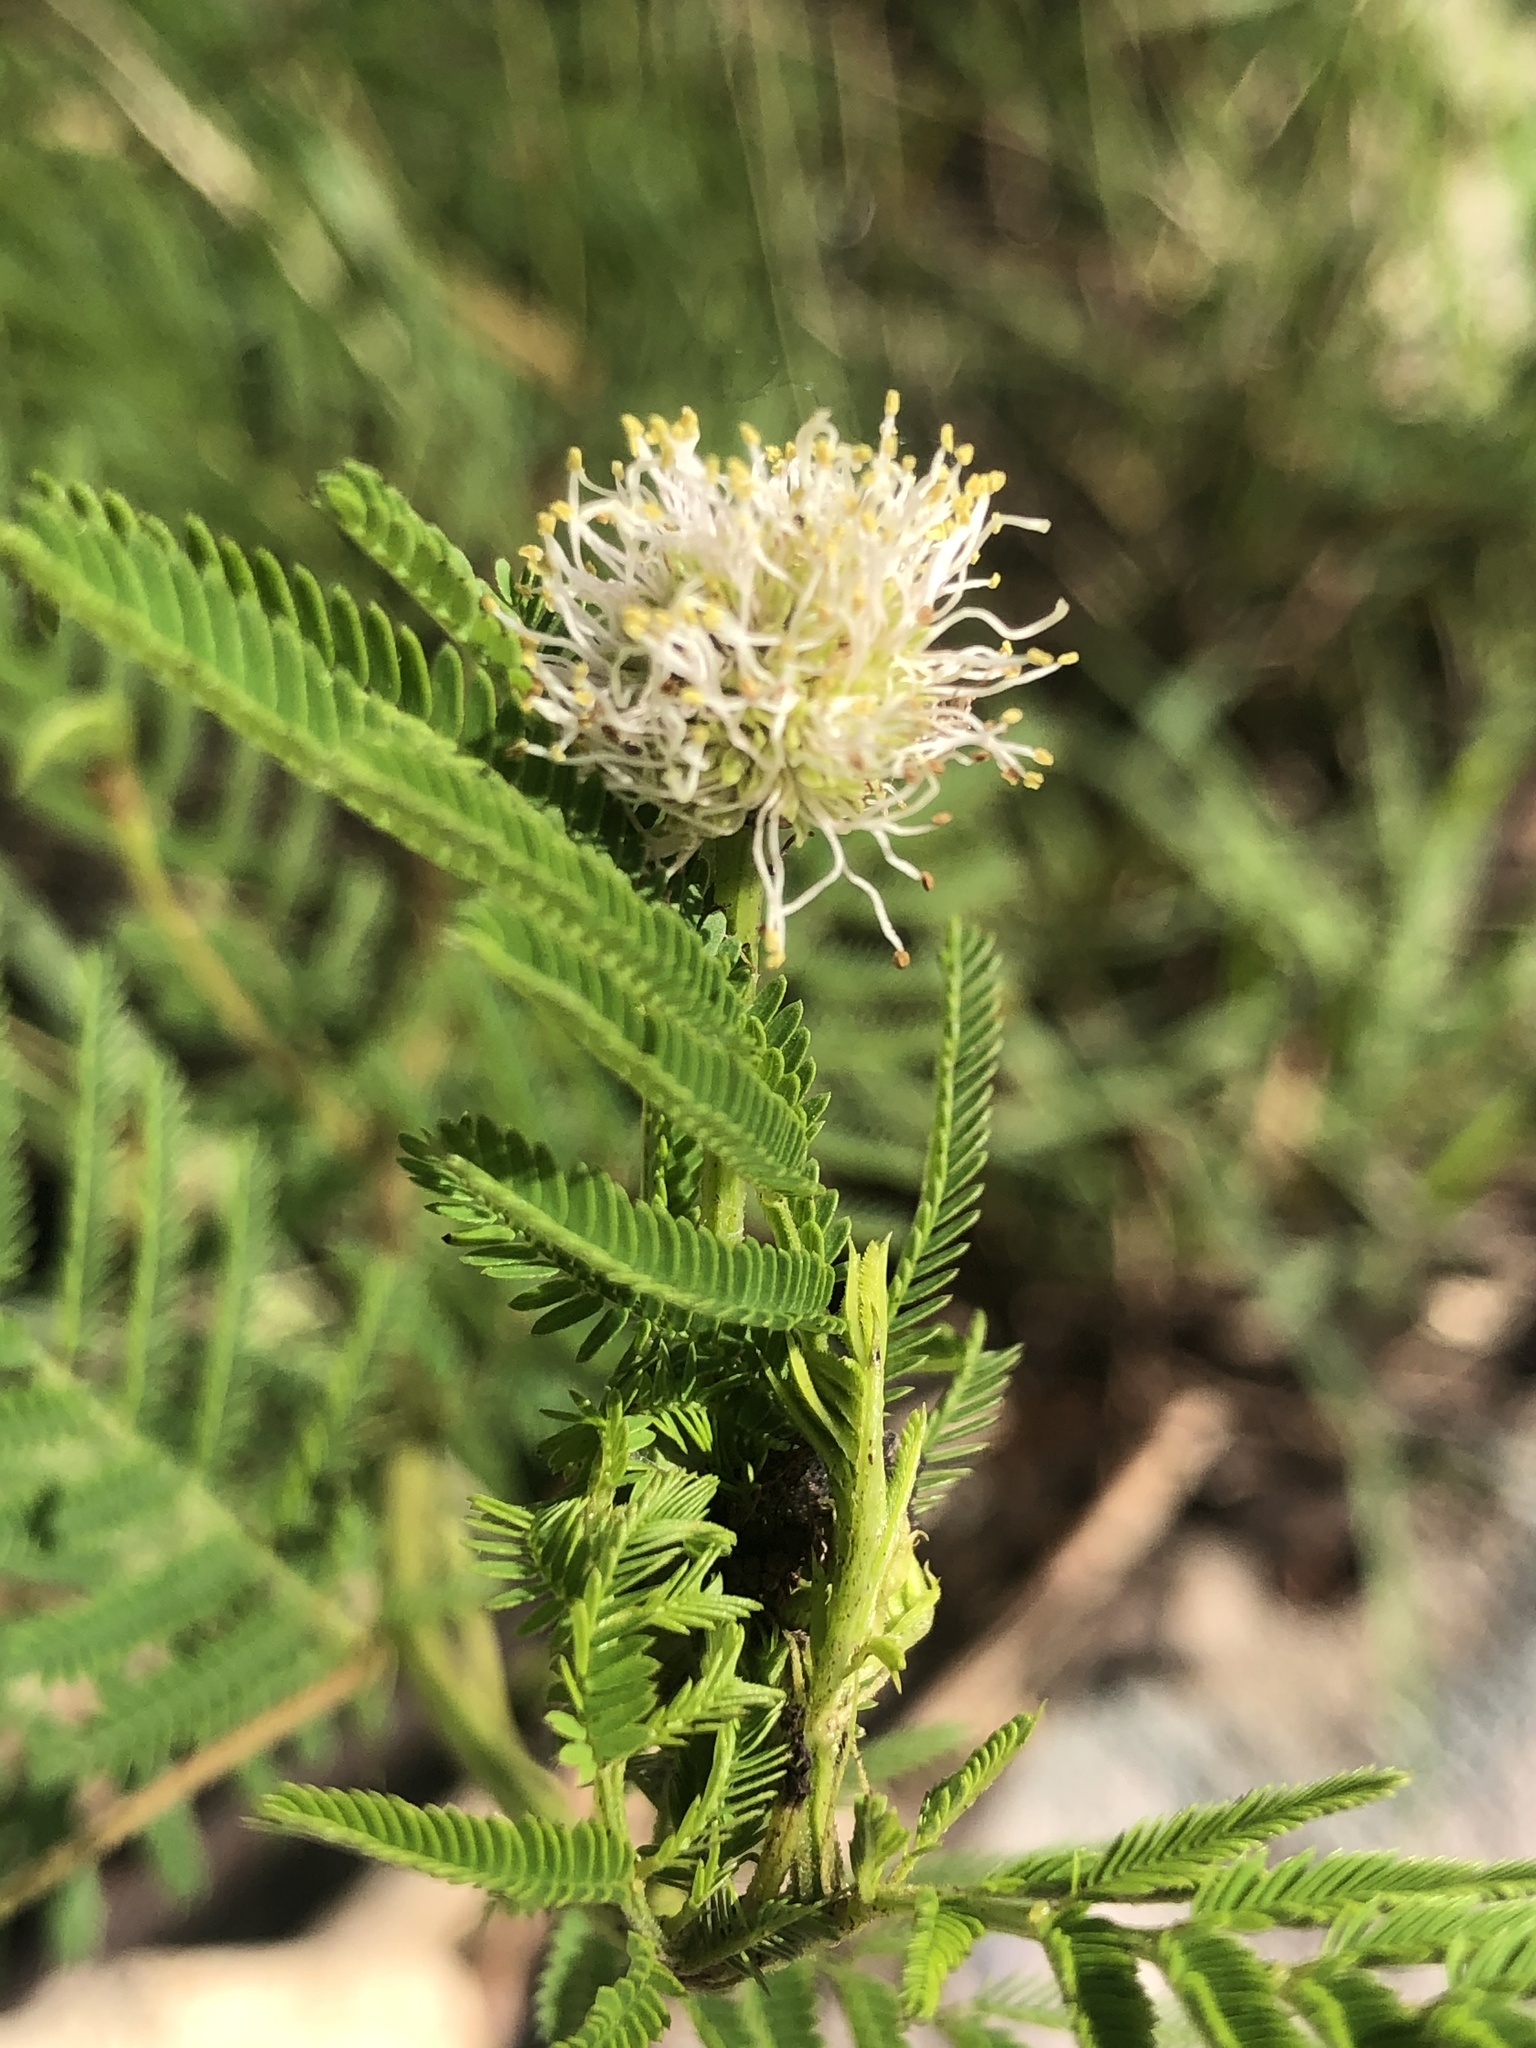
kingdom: Plantae
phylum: Tracheophyta
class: Magnoliopsida
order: Fabales
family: Fabaceae
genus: Desmanthus
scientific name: Desmanthus illinoensis
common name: Illinois bundle-flower
